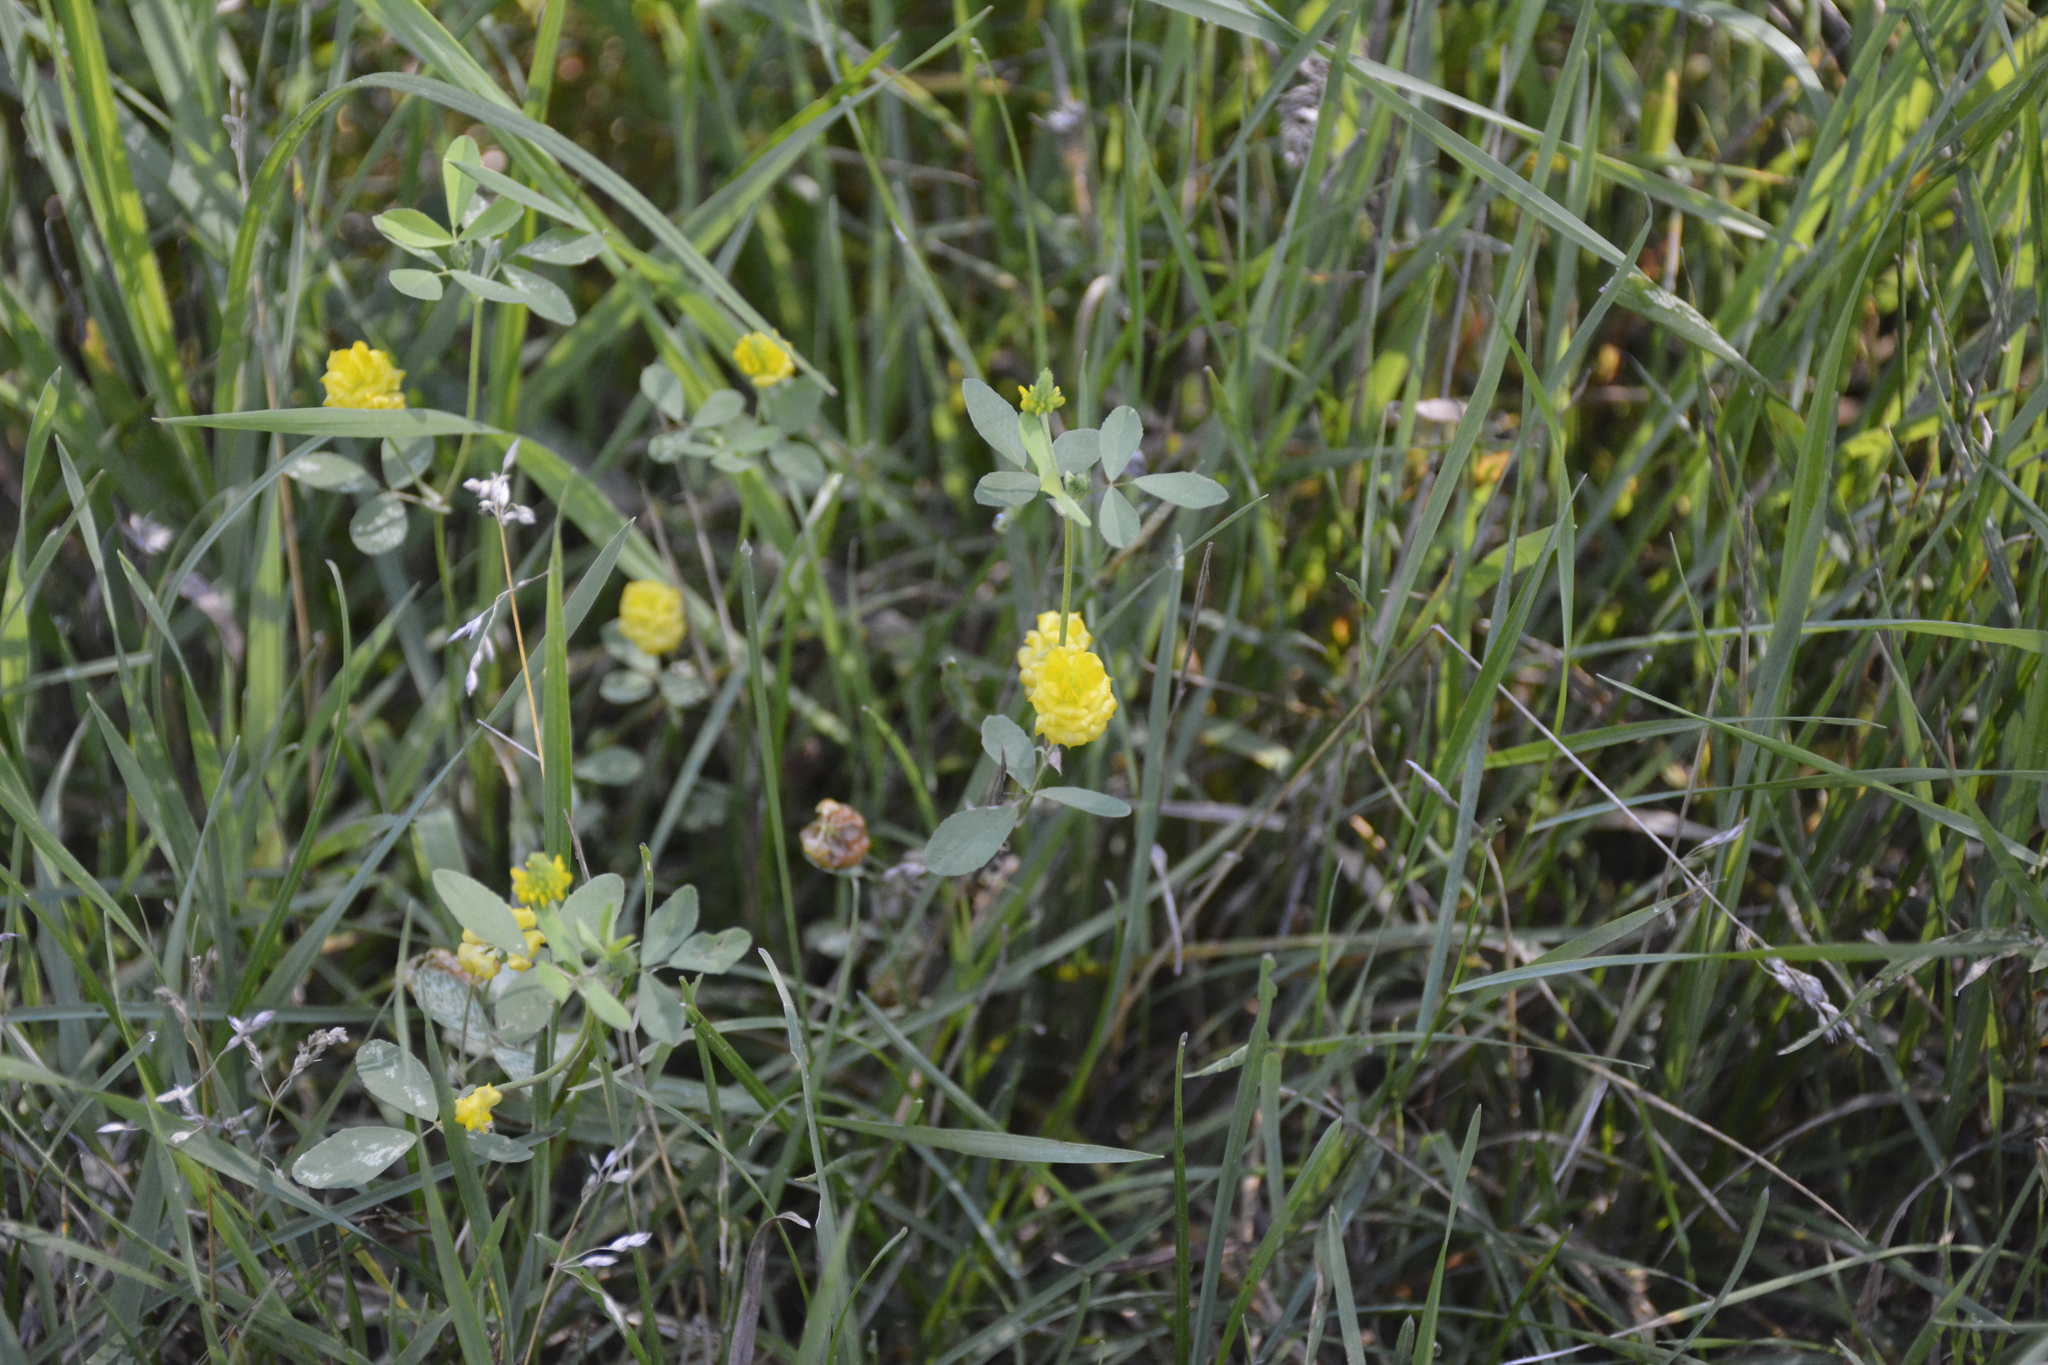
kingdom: Plantae
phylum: Tracheophyta
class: Magnoliopsida
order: Fabales
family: Fabaceae
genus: Trifolium
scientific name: Trifolium campestre
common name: Field clover
